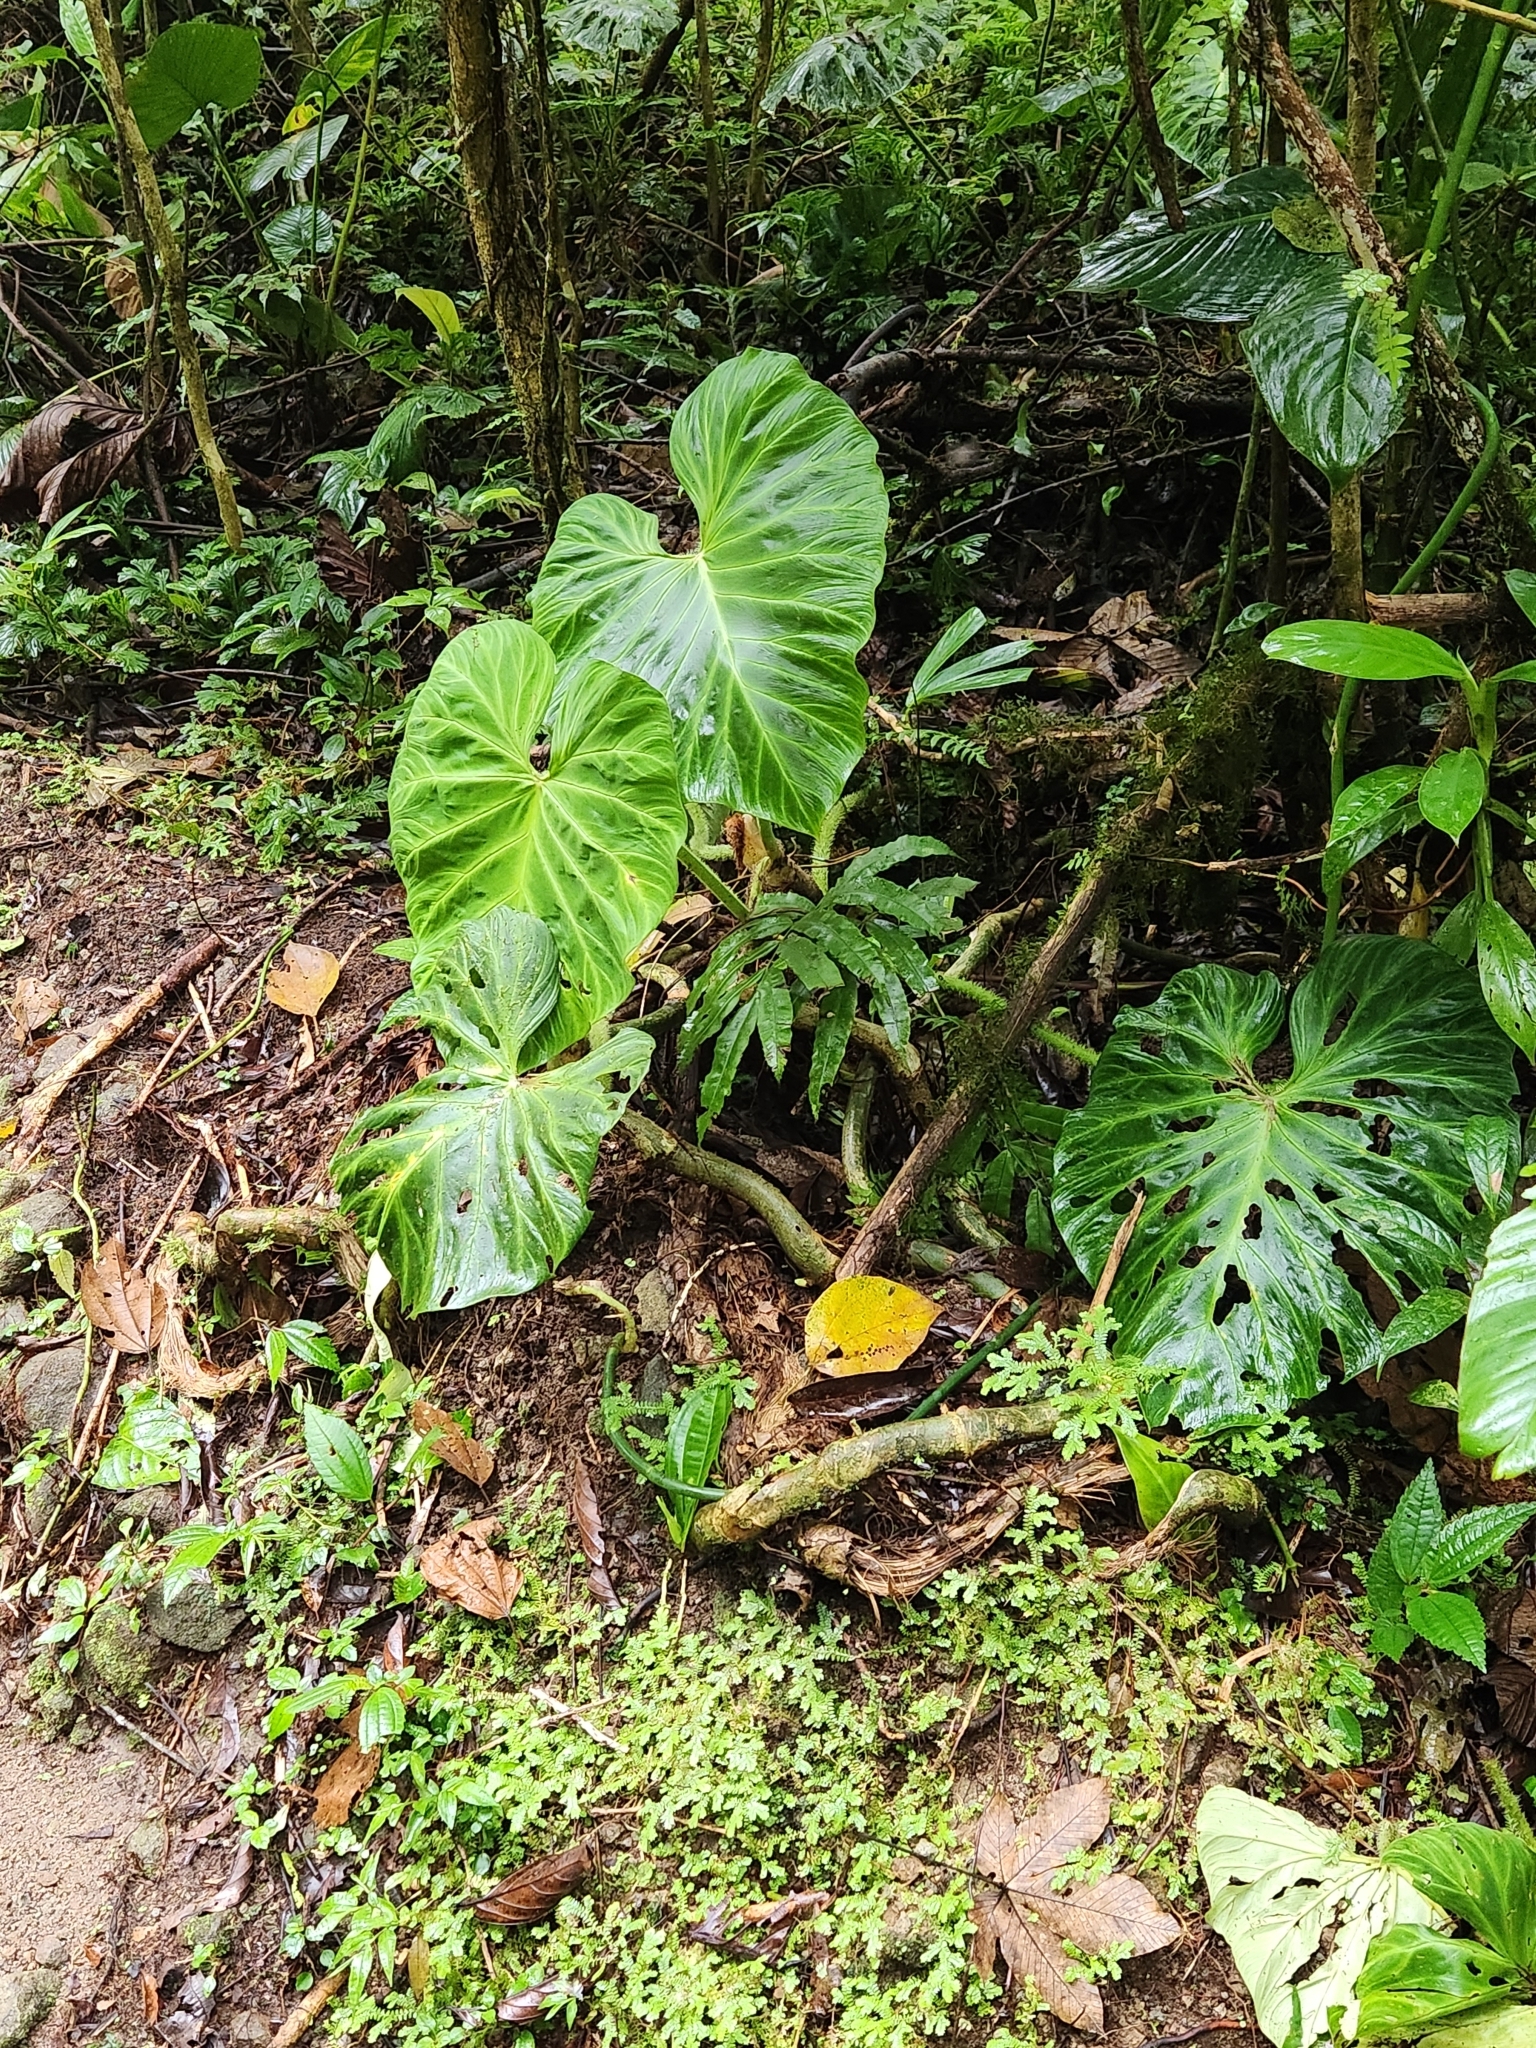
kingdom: Plantae
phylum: Tracheophyta
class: Liliopsida
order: Alismatales
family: Araceae
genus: Philodendron
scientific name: Philodendron verrucosum
